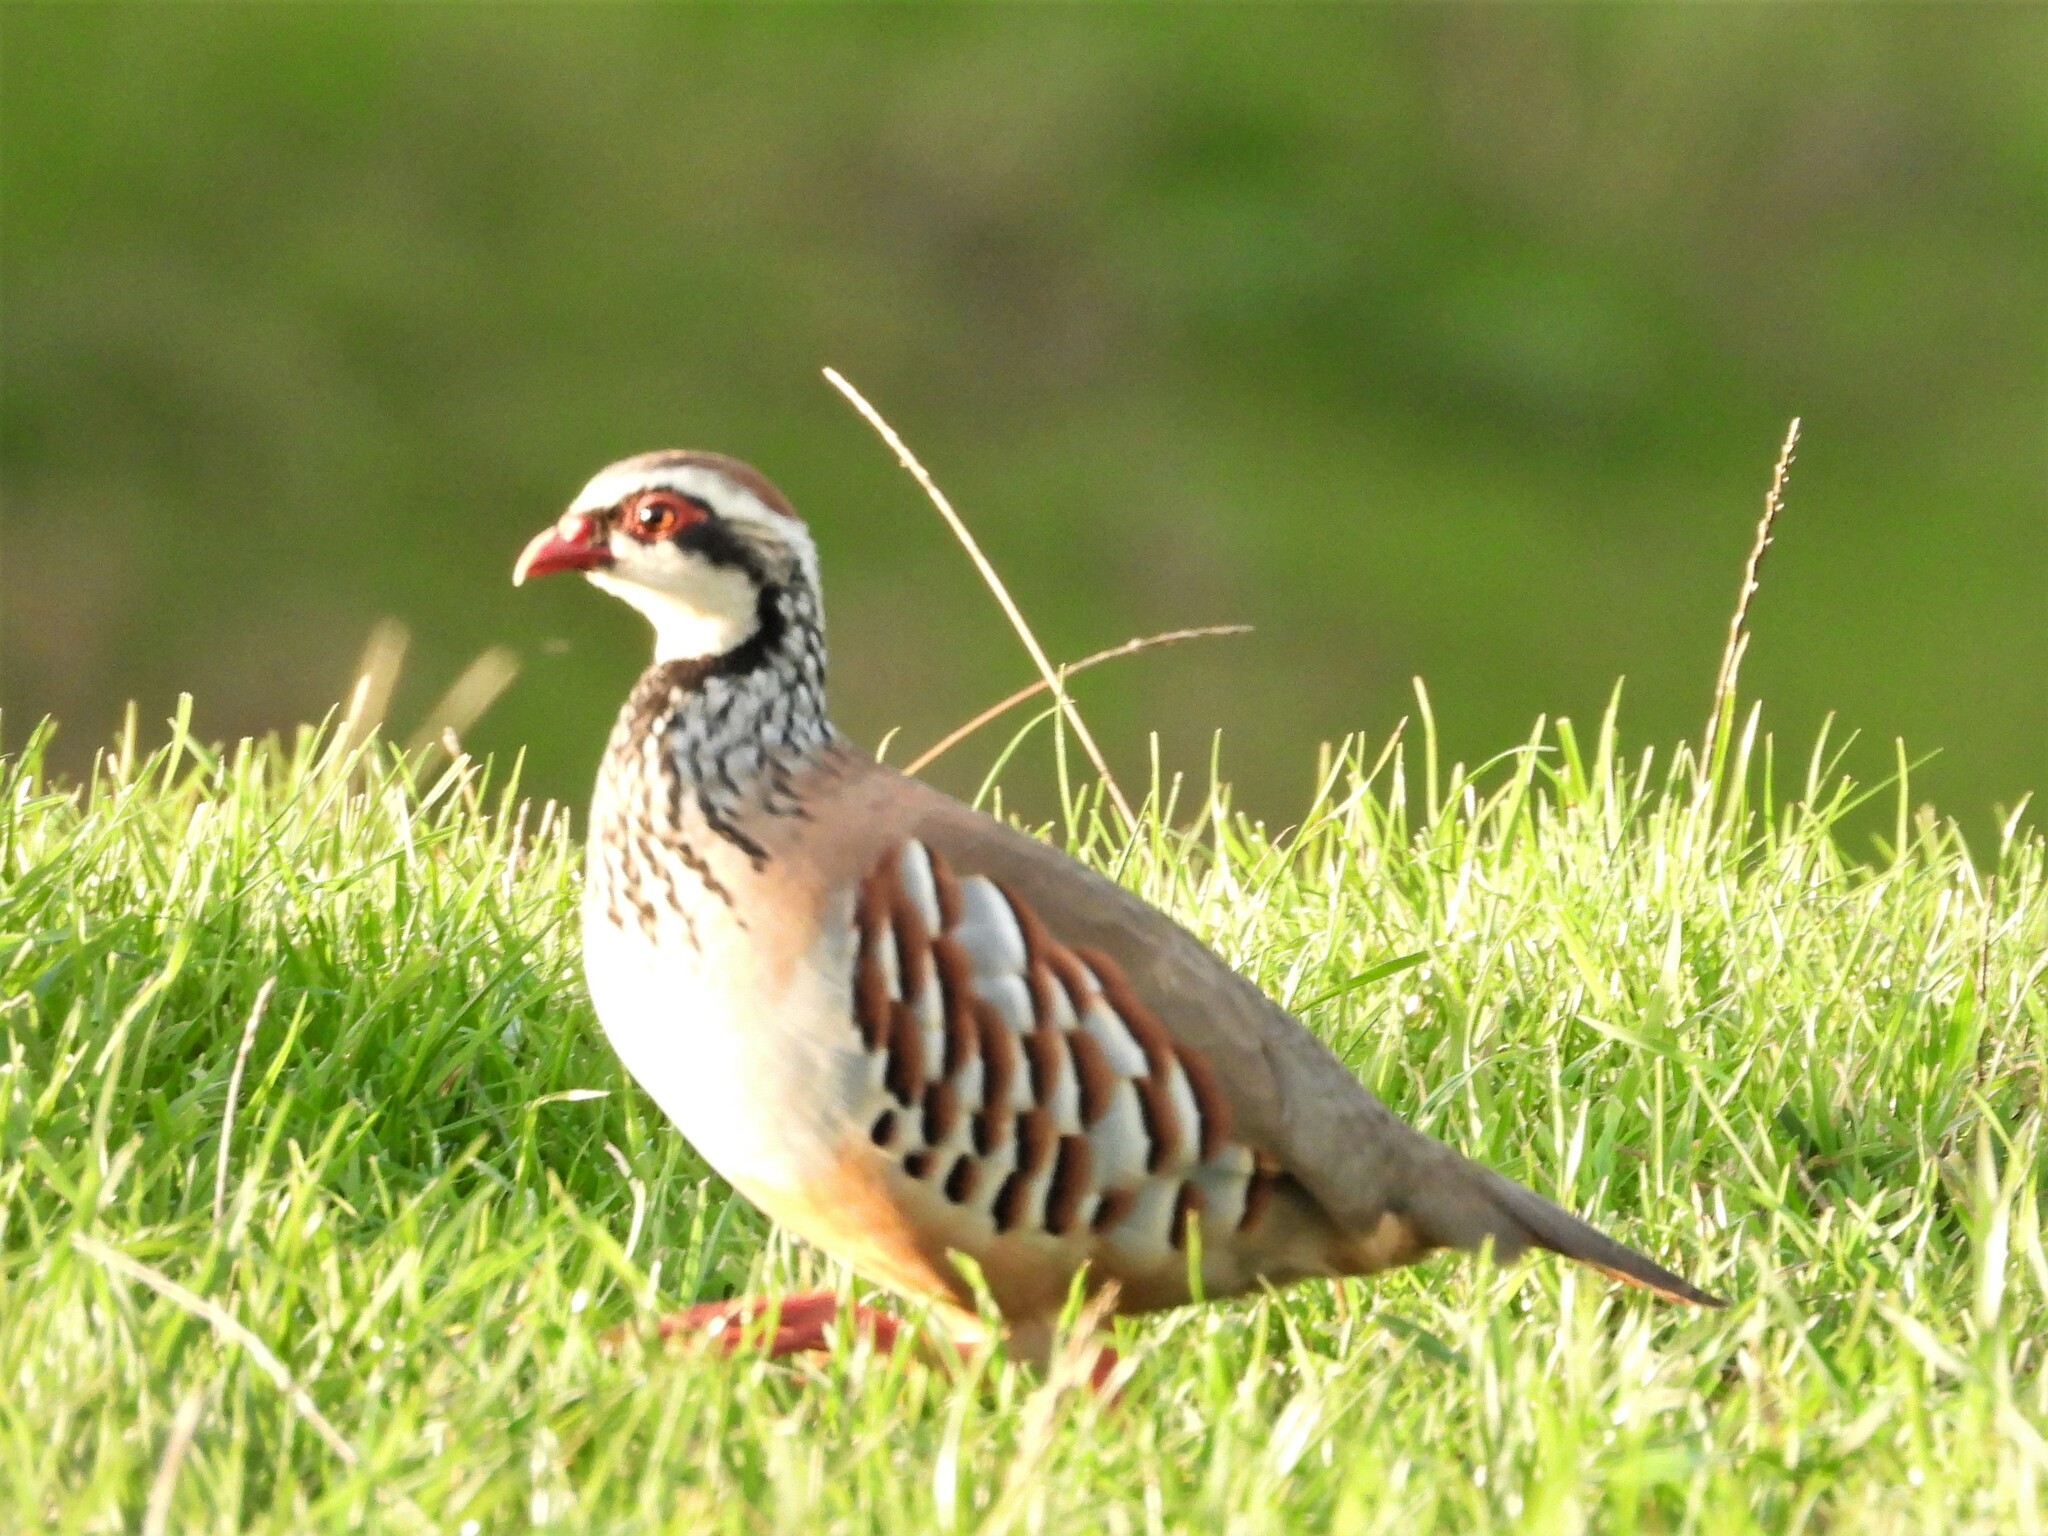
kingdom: Animalia
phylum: Chordata
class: Aves
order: Galliformes
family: Phasianidae
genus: Alectoris
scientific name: Alectoris rufa
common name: Red-legged partridge
